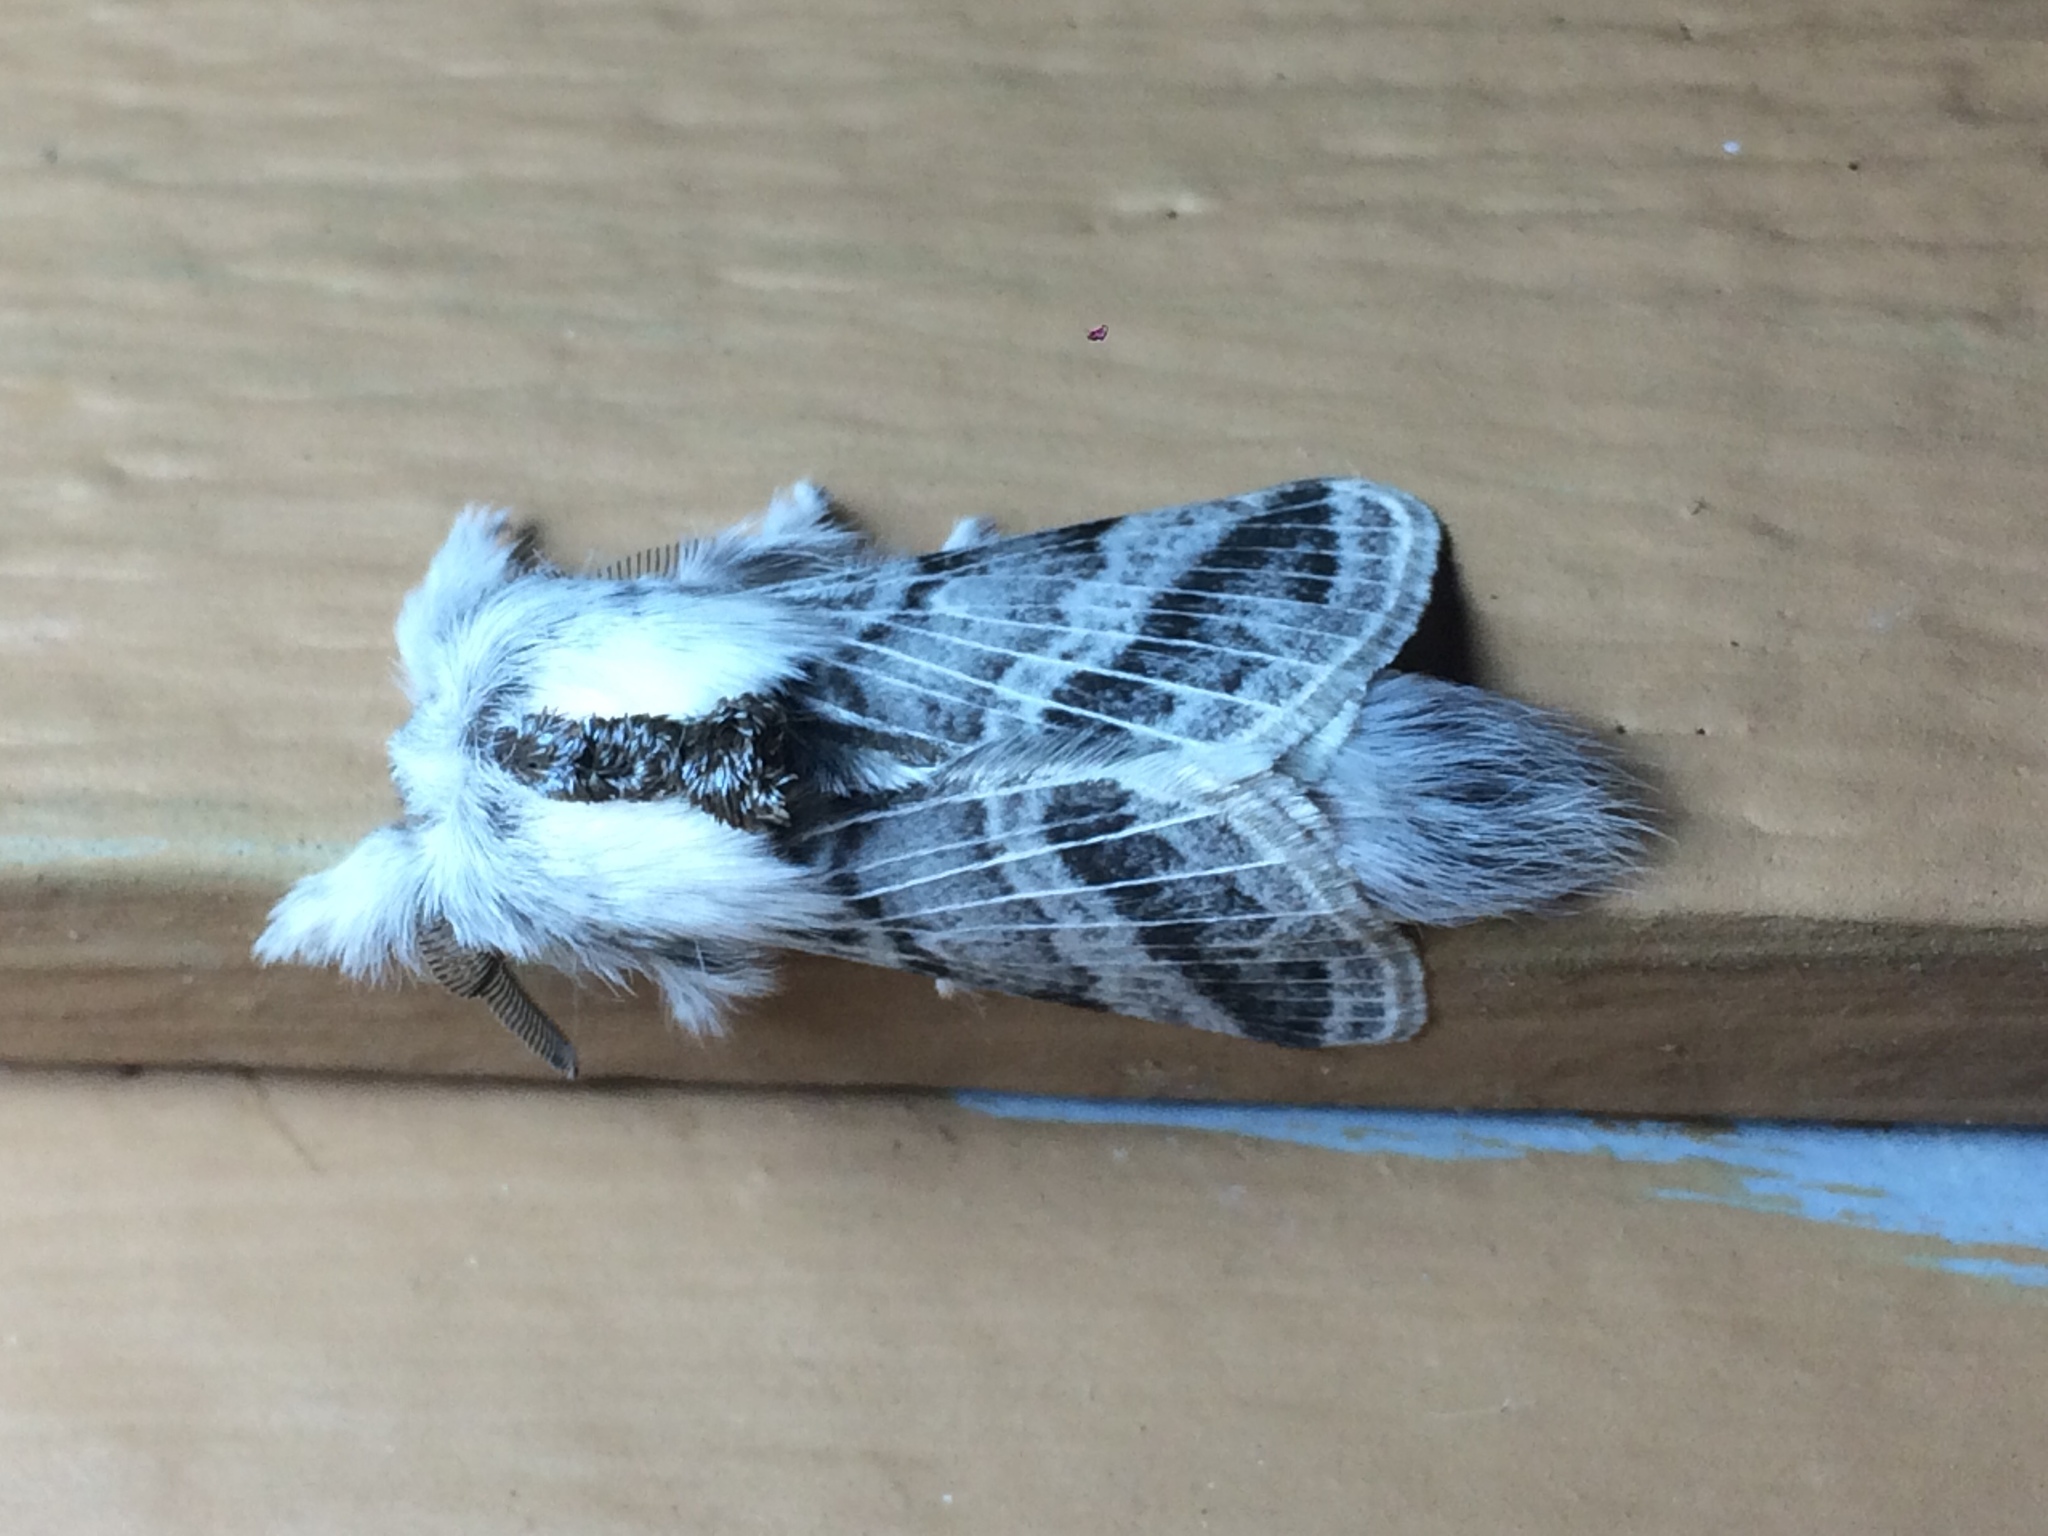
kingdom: Animalia
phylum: Arthropoda
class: Insecta
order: Lepidoptera
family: Lasiocampidae
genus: Tolype
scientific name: Tolype distincta
